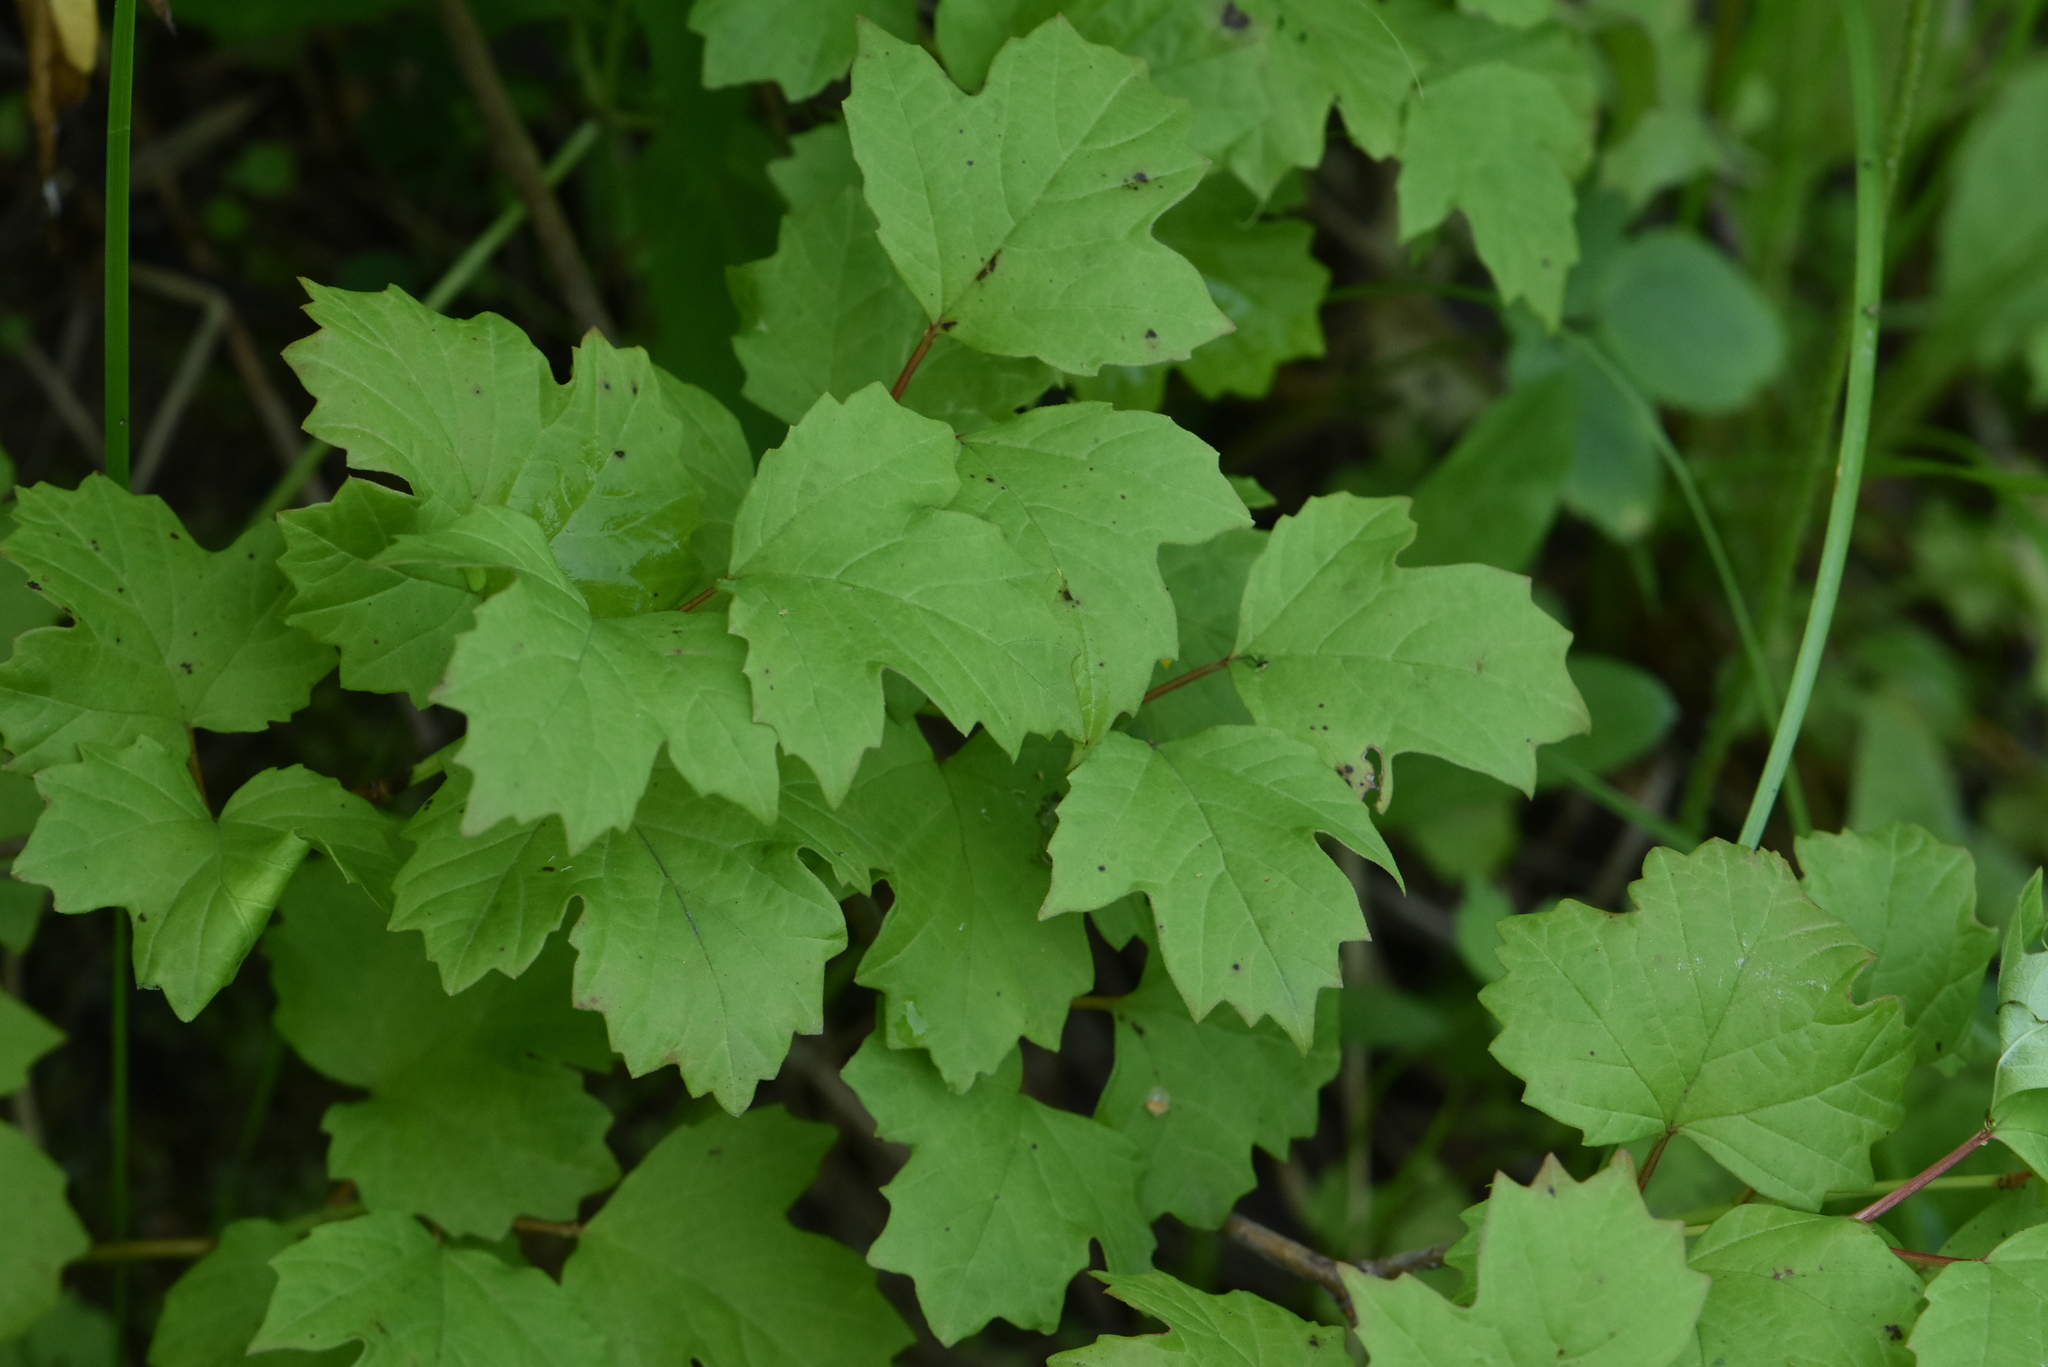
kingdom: Plantae
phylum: Tracheophyta
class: Magnoliopsida
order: Dipsacales
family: Viburnaceae
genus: Viburnum
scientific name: Viburnum opulus
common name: Guelder-rose
